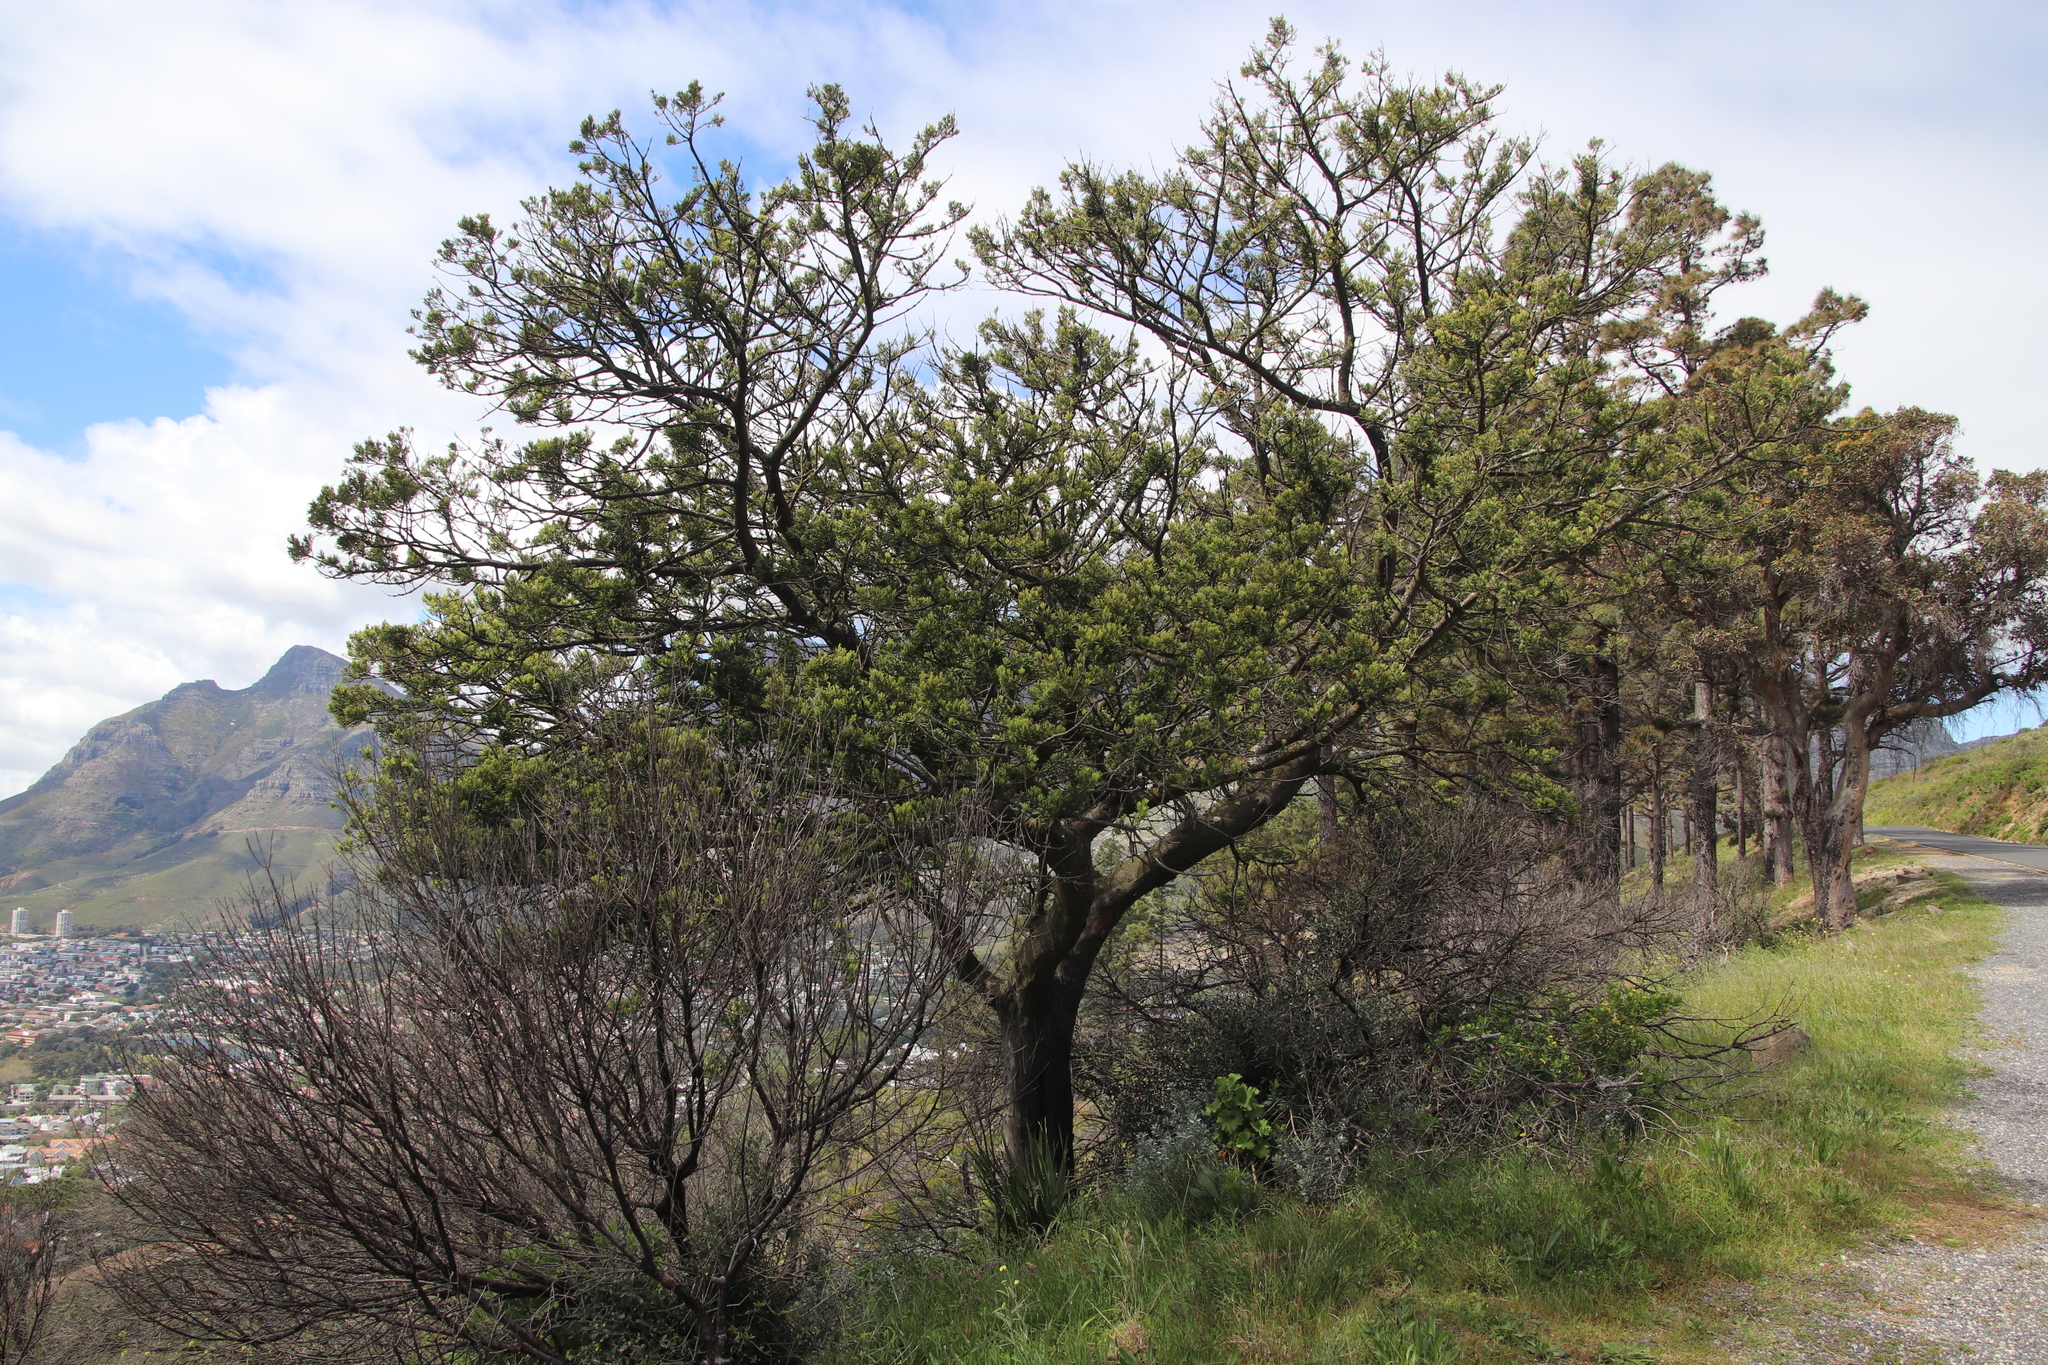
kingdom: Plantae
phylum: Tracheophyta
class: Pinopsida
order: Pinales
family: Podocarpaceae
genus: Podocarpus
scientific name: Podocarpus latifolius
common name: True yellowwood
